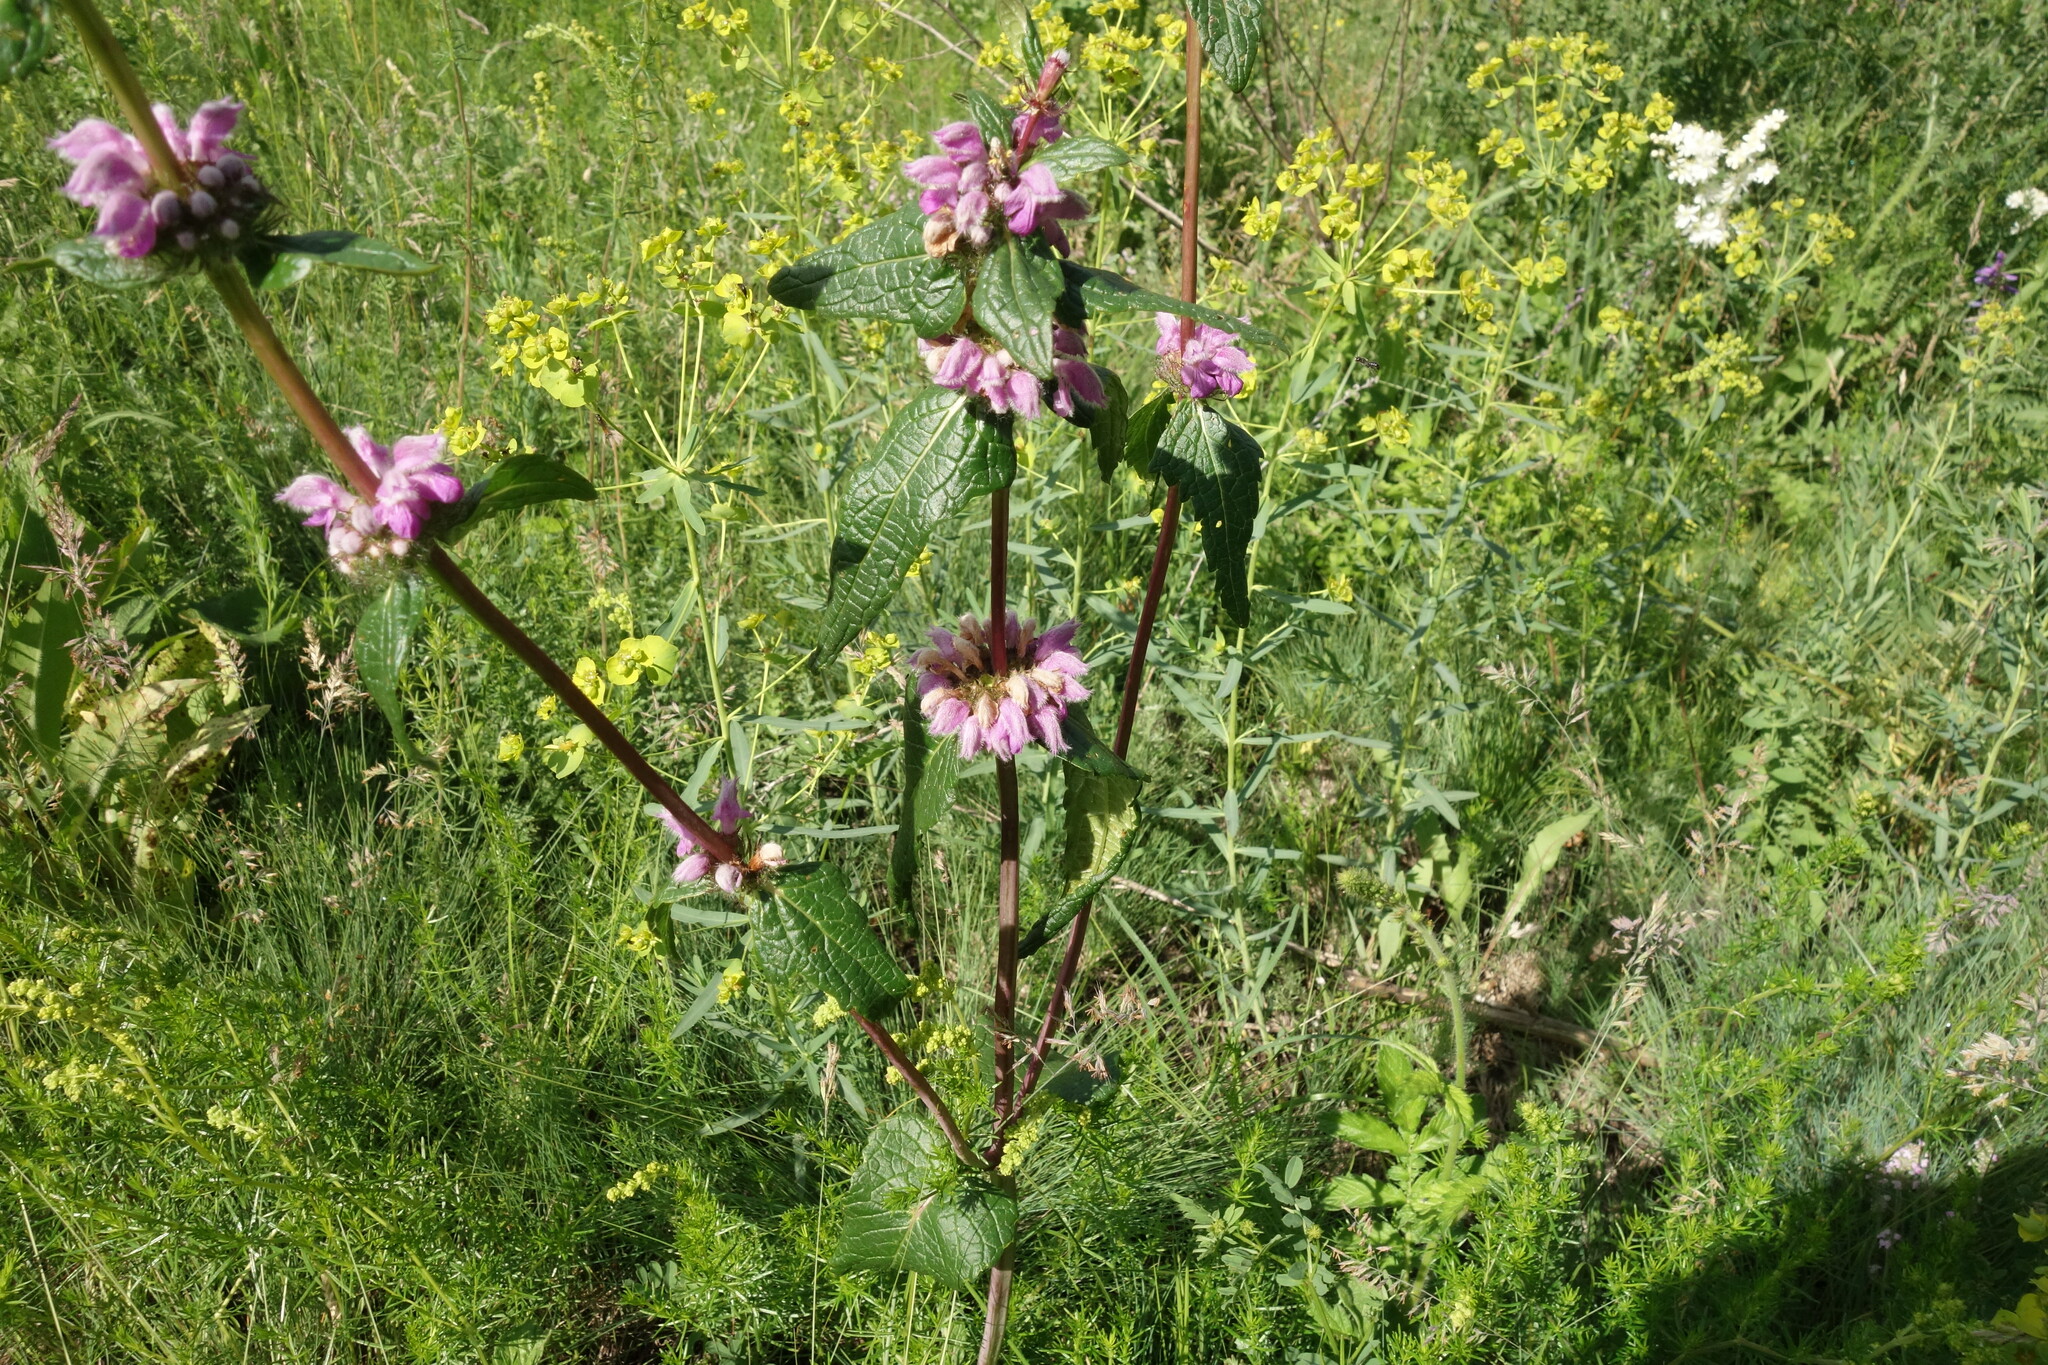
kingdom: Plantae
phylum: Tracheophyta
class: Magnoliopsida
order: Lamiales
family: Lamiaceae
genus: Phlomoides
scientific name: Phlomoides tuberosa
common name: Tuberous jerusalem sage
